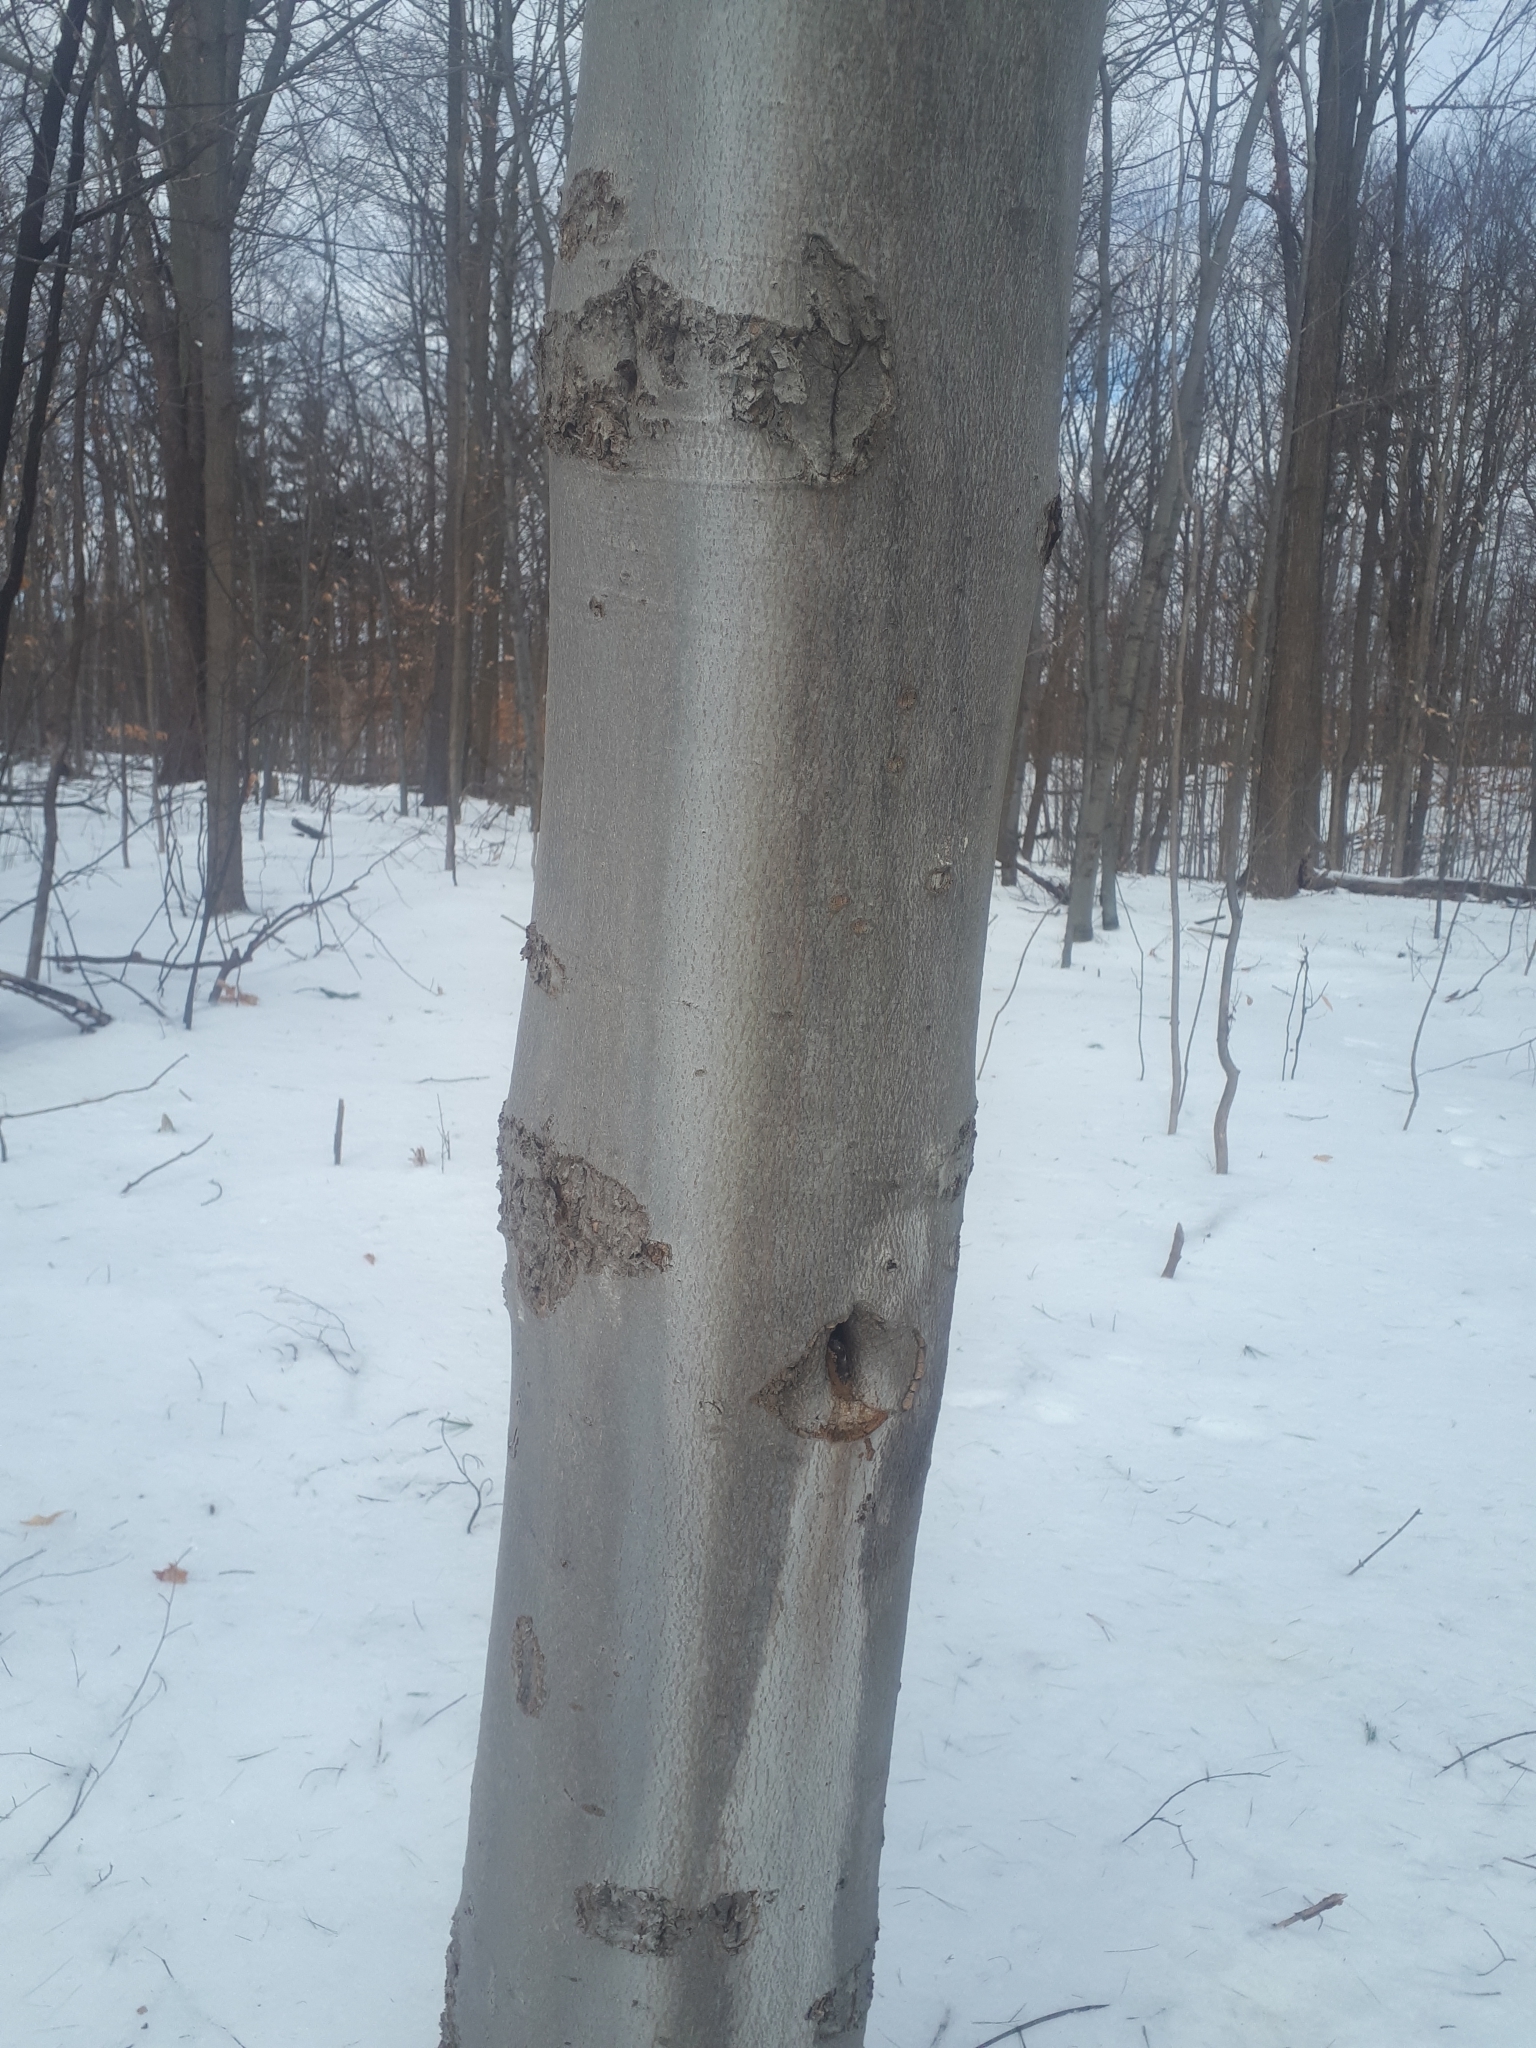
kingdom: Plantae
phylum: Tracheophyta
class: Magnoliopsida
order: Fagales
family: Fagaceae
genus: Fagus
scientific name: Fagus grandifolia
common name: American beech
